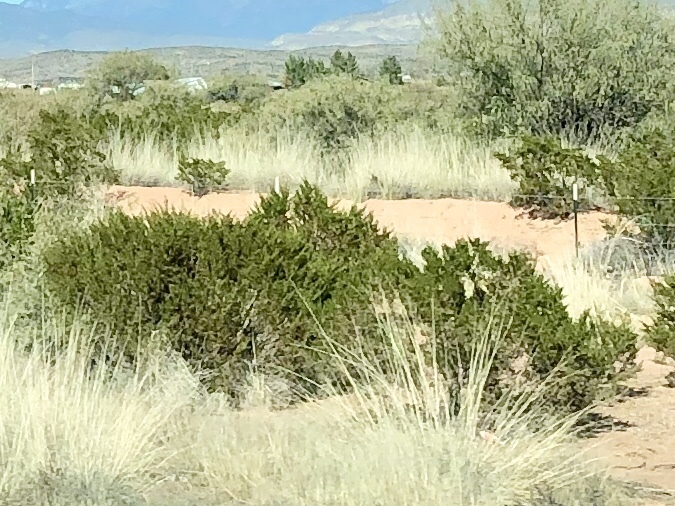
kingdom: Plantae
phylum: Tracheophyta
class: Magnoliopsida
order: Zygophyllales
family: Zygophyllaceae
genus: Larrea
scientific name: Larrea tridentata
